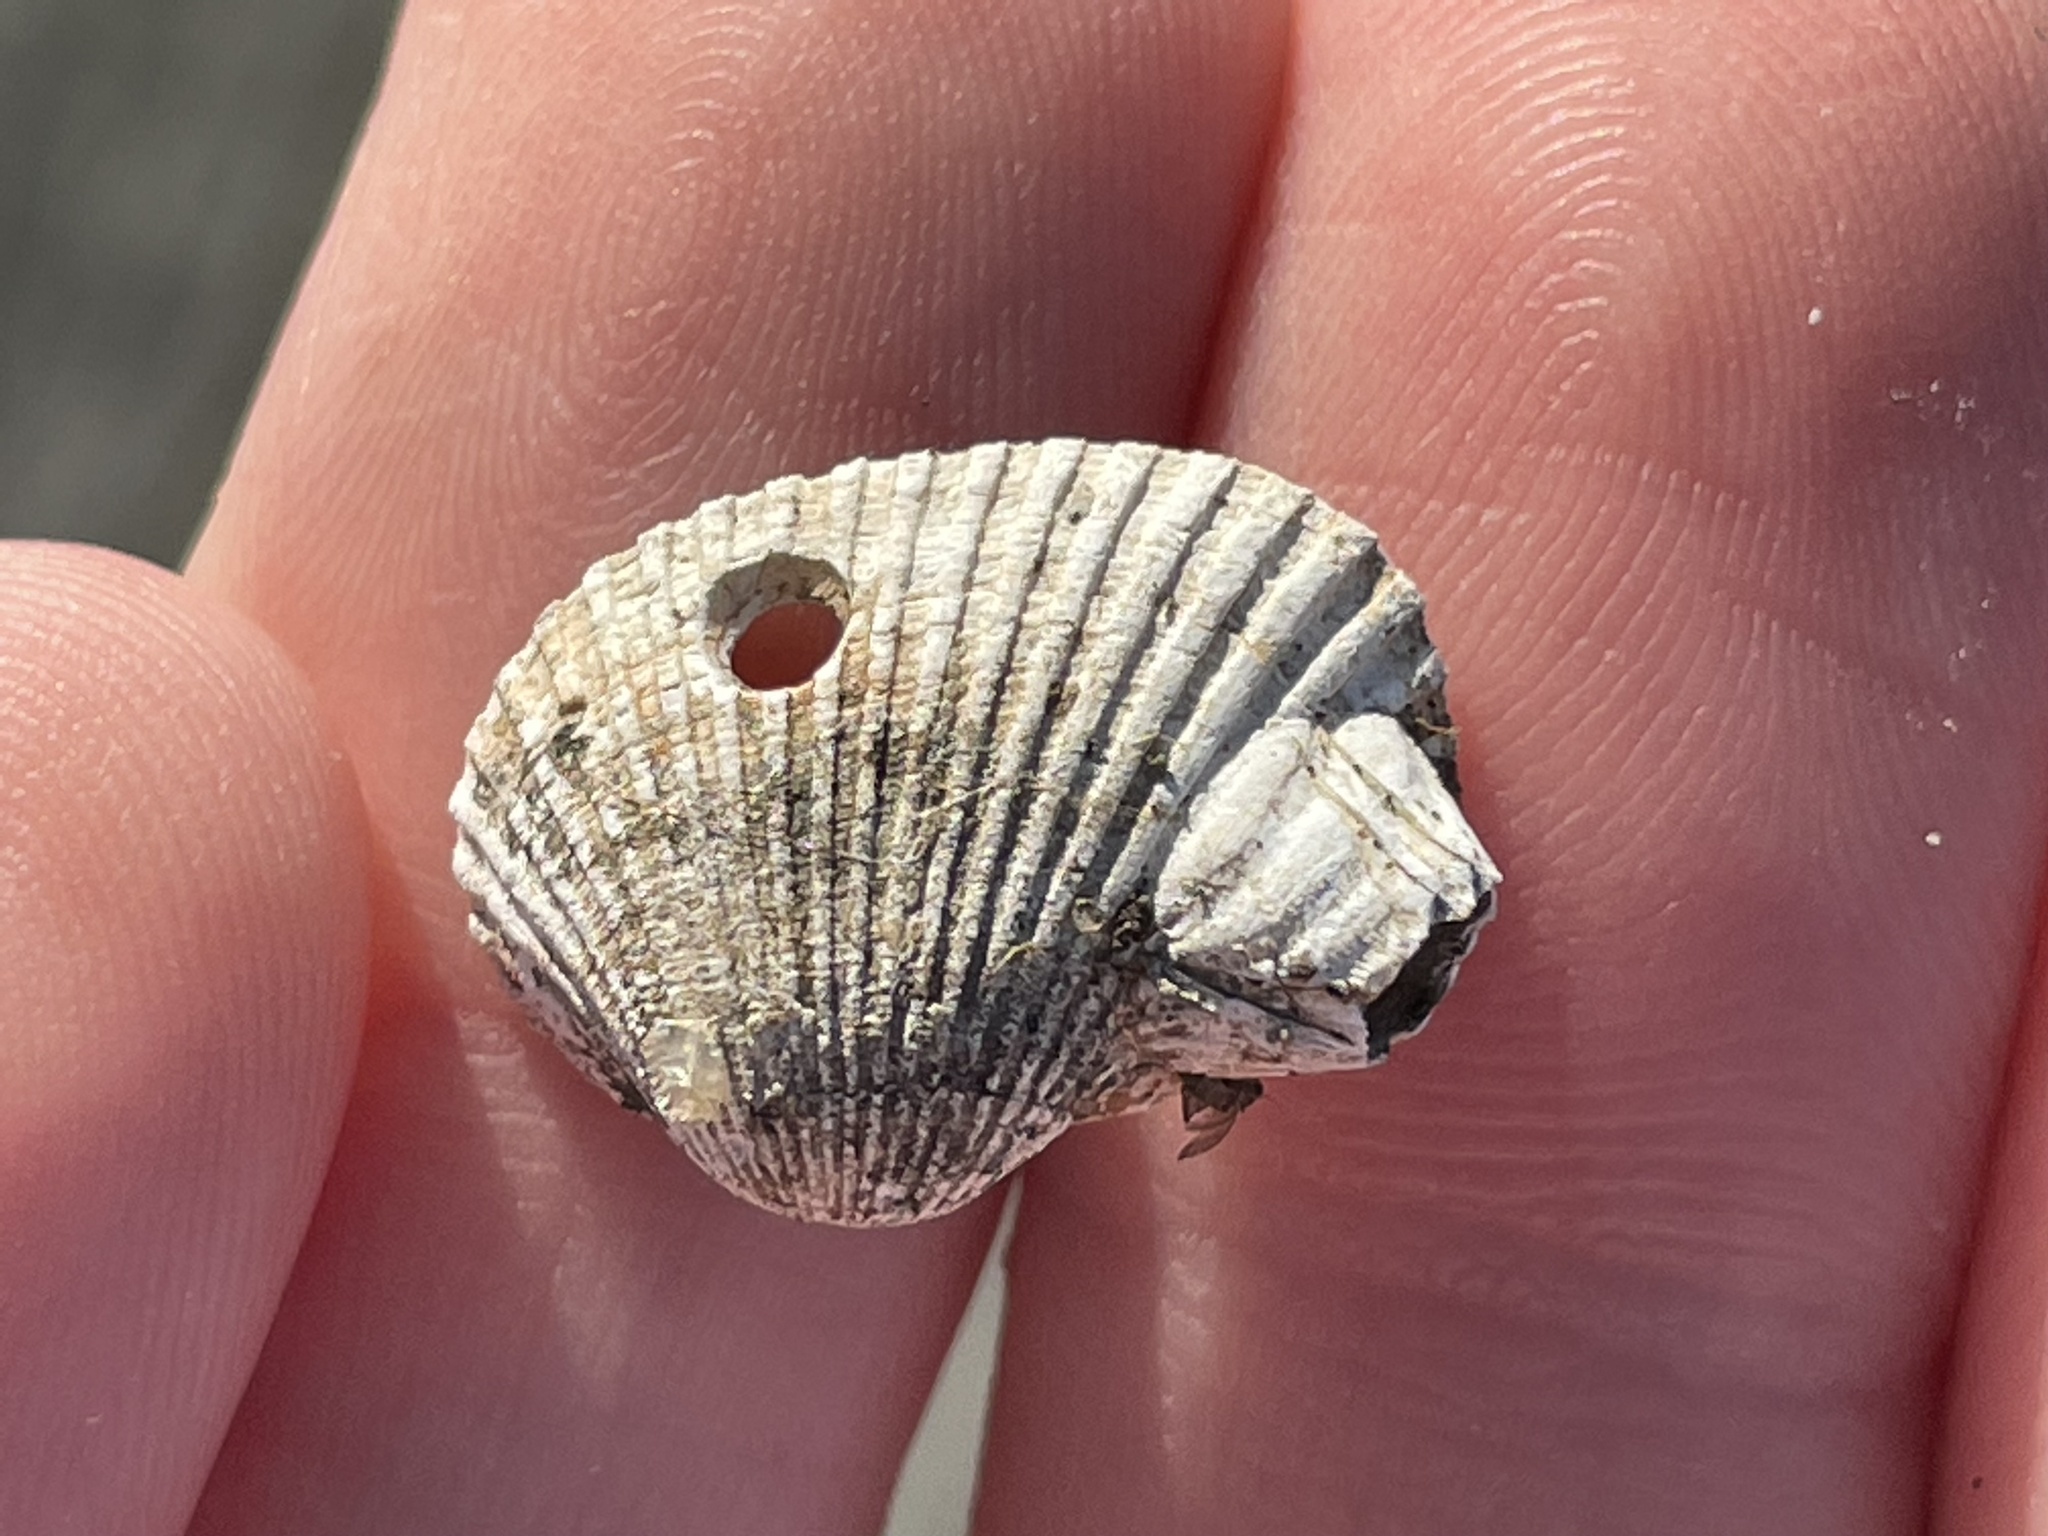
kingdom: Animalia
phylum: Mollusca
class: Bivalvia
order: Arcida
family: Arcidae
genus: Anadara
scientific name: Anadara transversa
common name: Transverse ark
